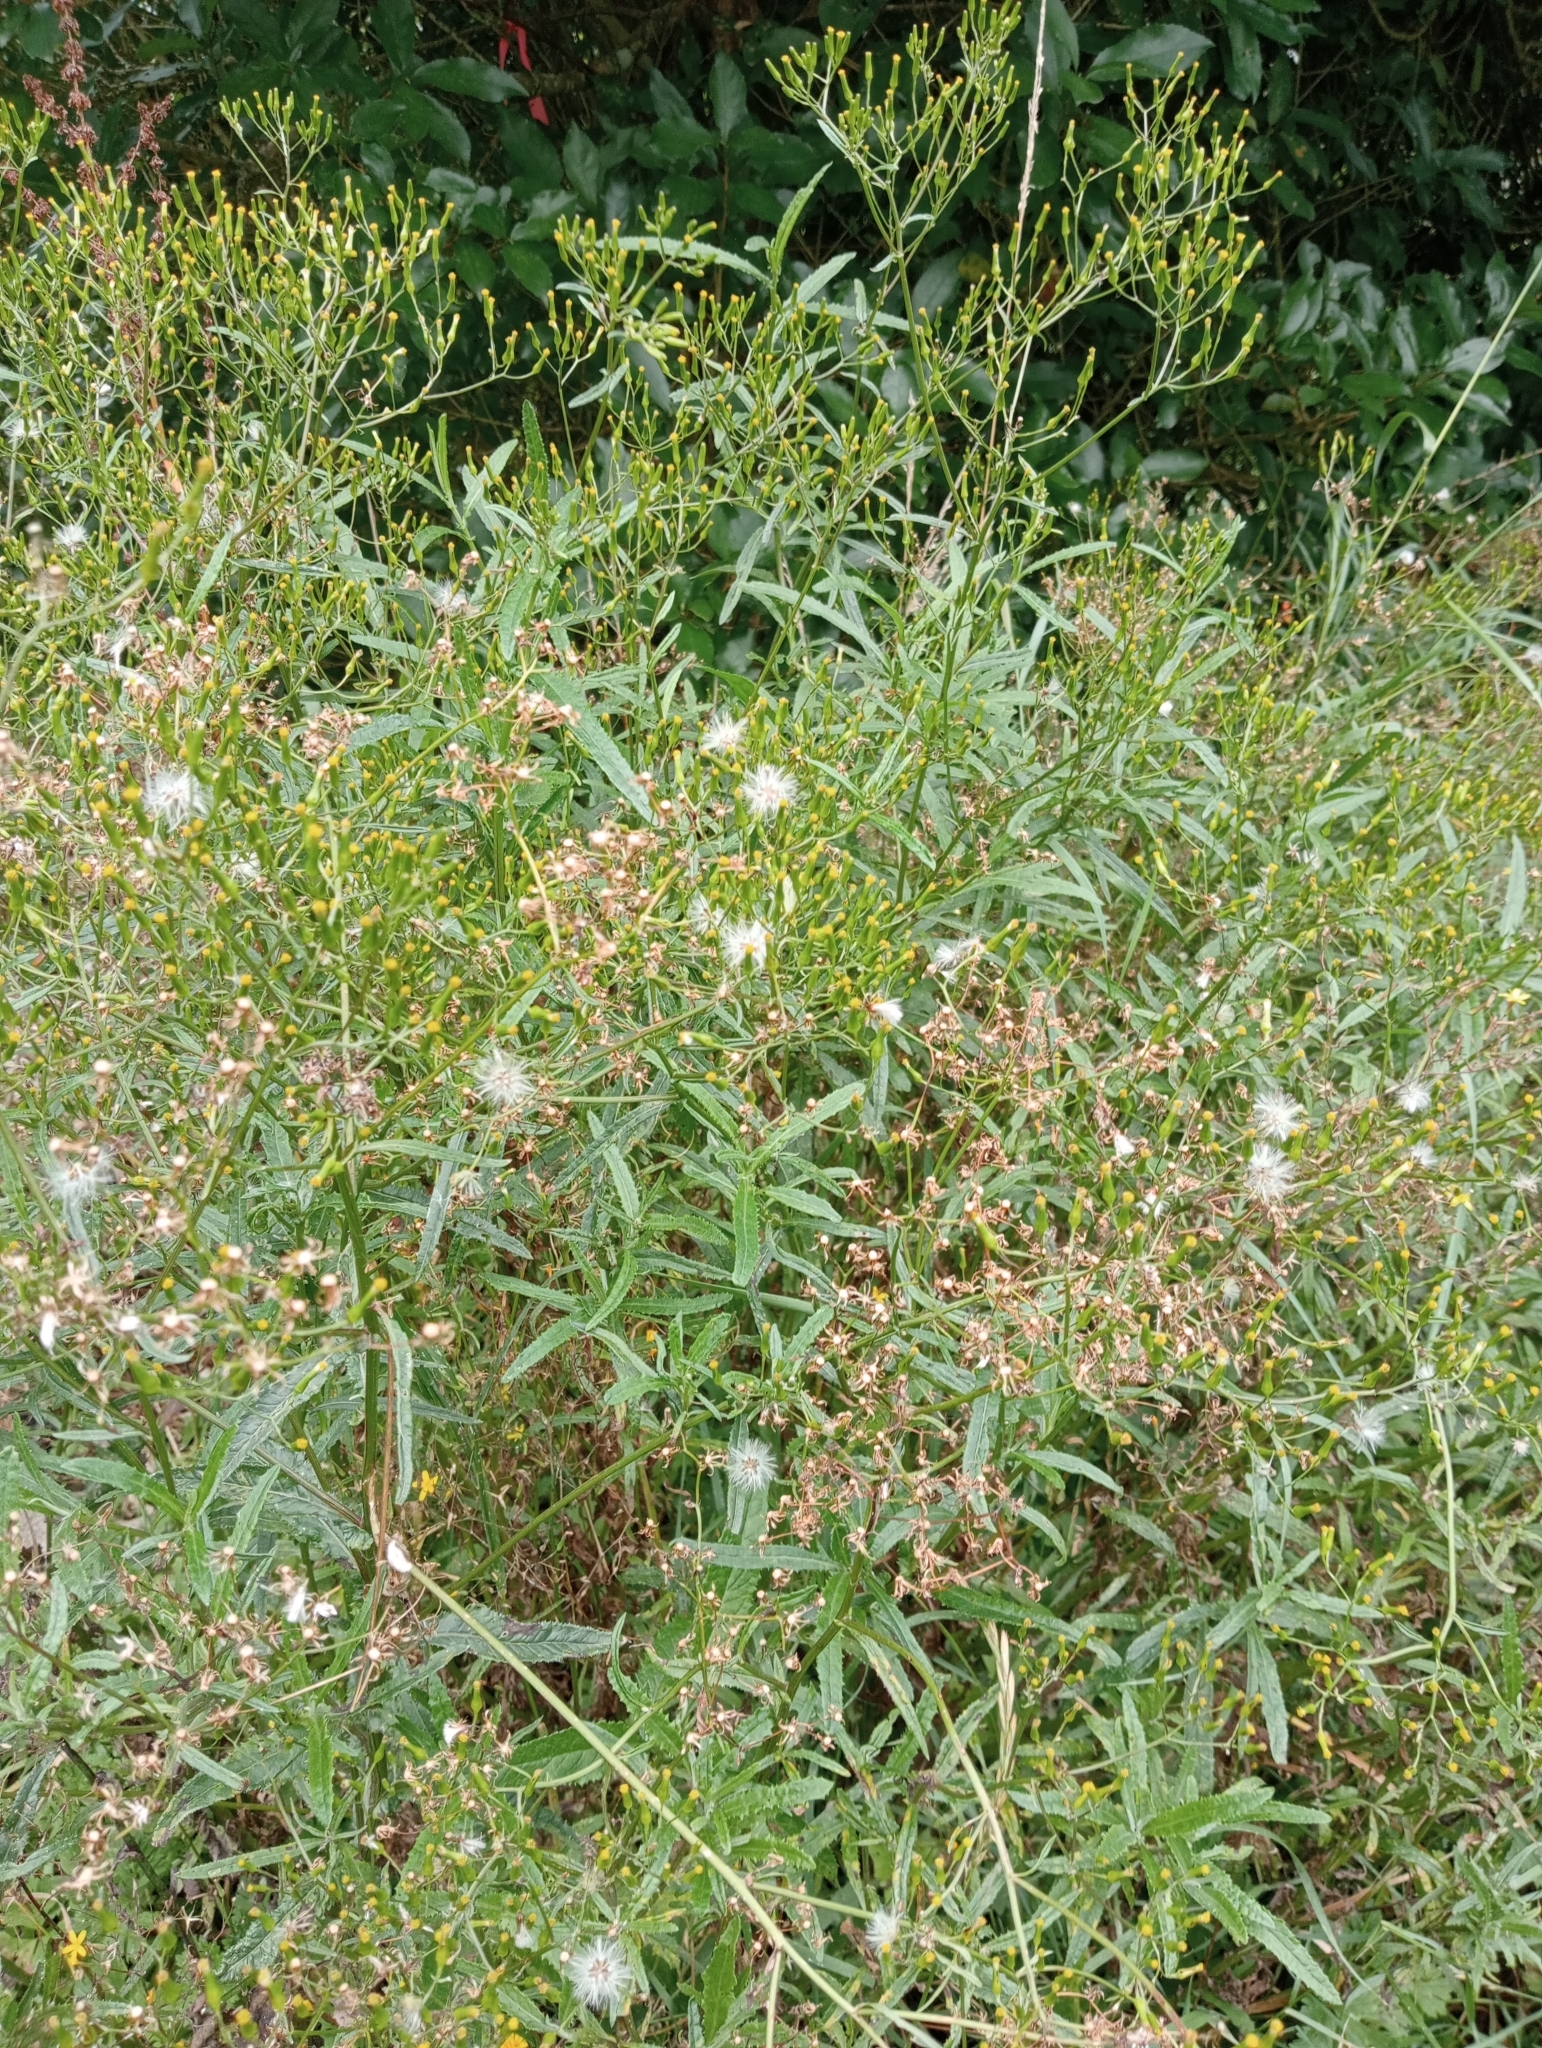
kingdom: Plantae
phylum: Tracheophyta
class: Magnoliopsida
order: Asterales
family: Asteraceae
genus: Senecio
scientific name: Senecio minimus
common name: Toothed fireweed
